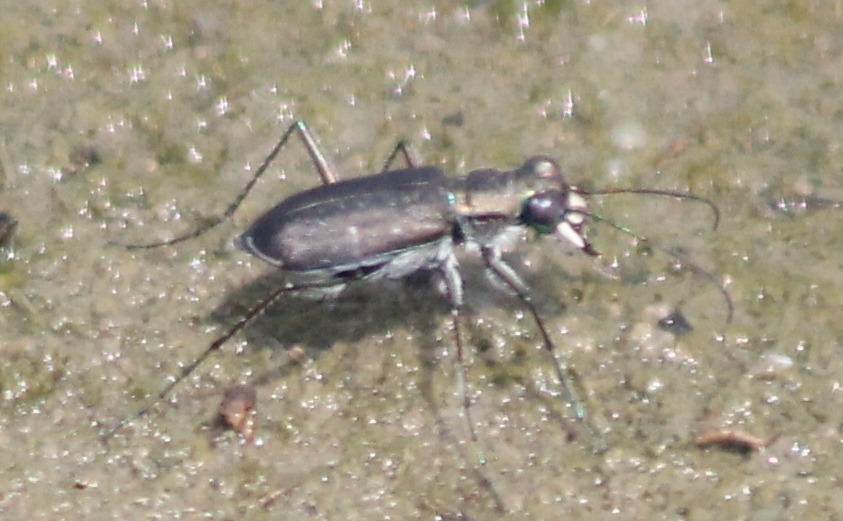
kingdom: Animalia
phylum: Arthropoda
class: Insecta
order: Coleoptera
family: Carabidae
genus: Cicindela
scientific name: Cicindela punctulata
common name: Punctured tiger beetle
